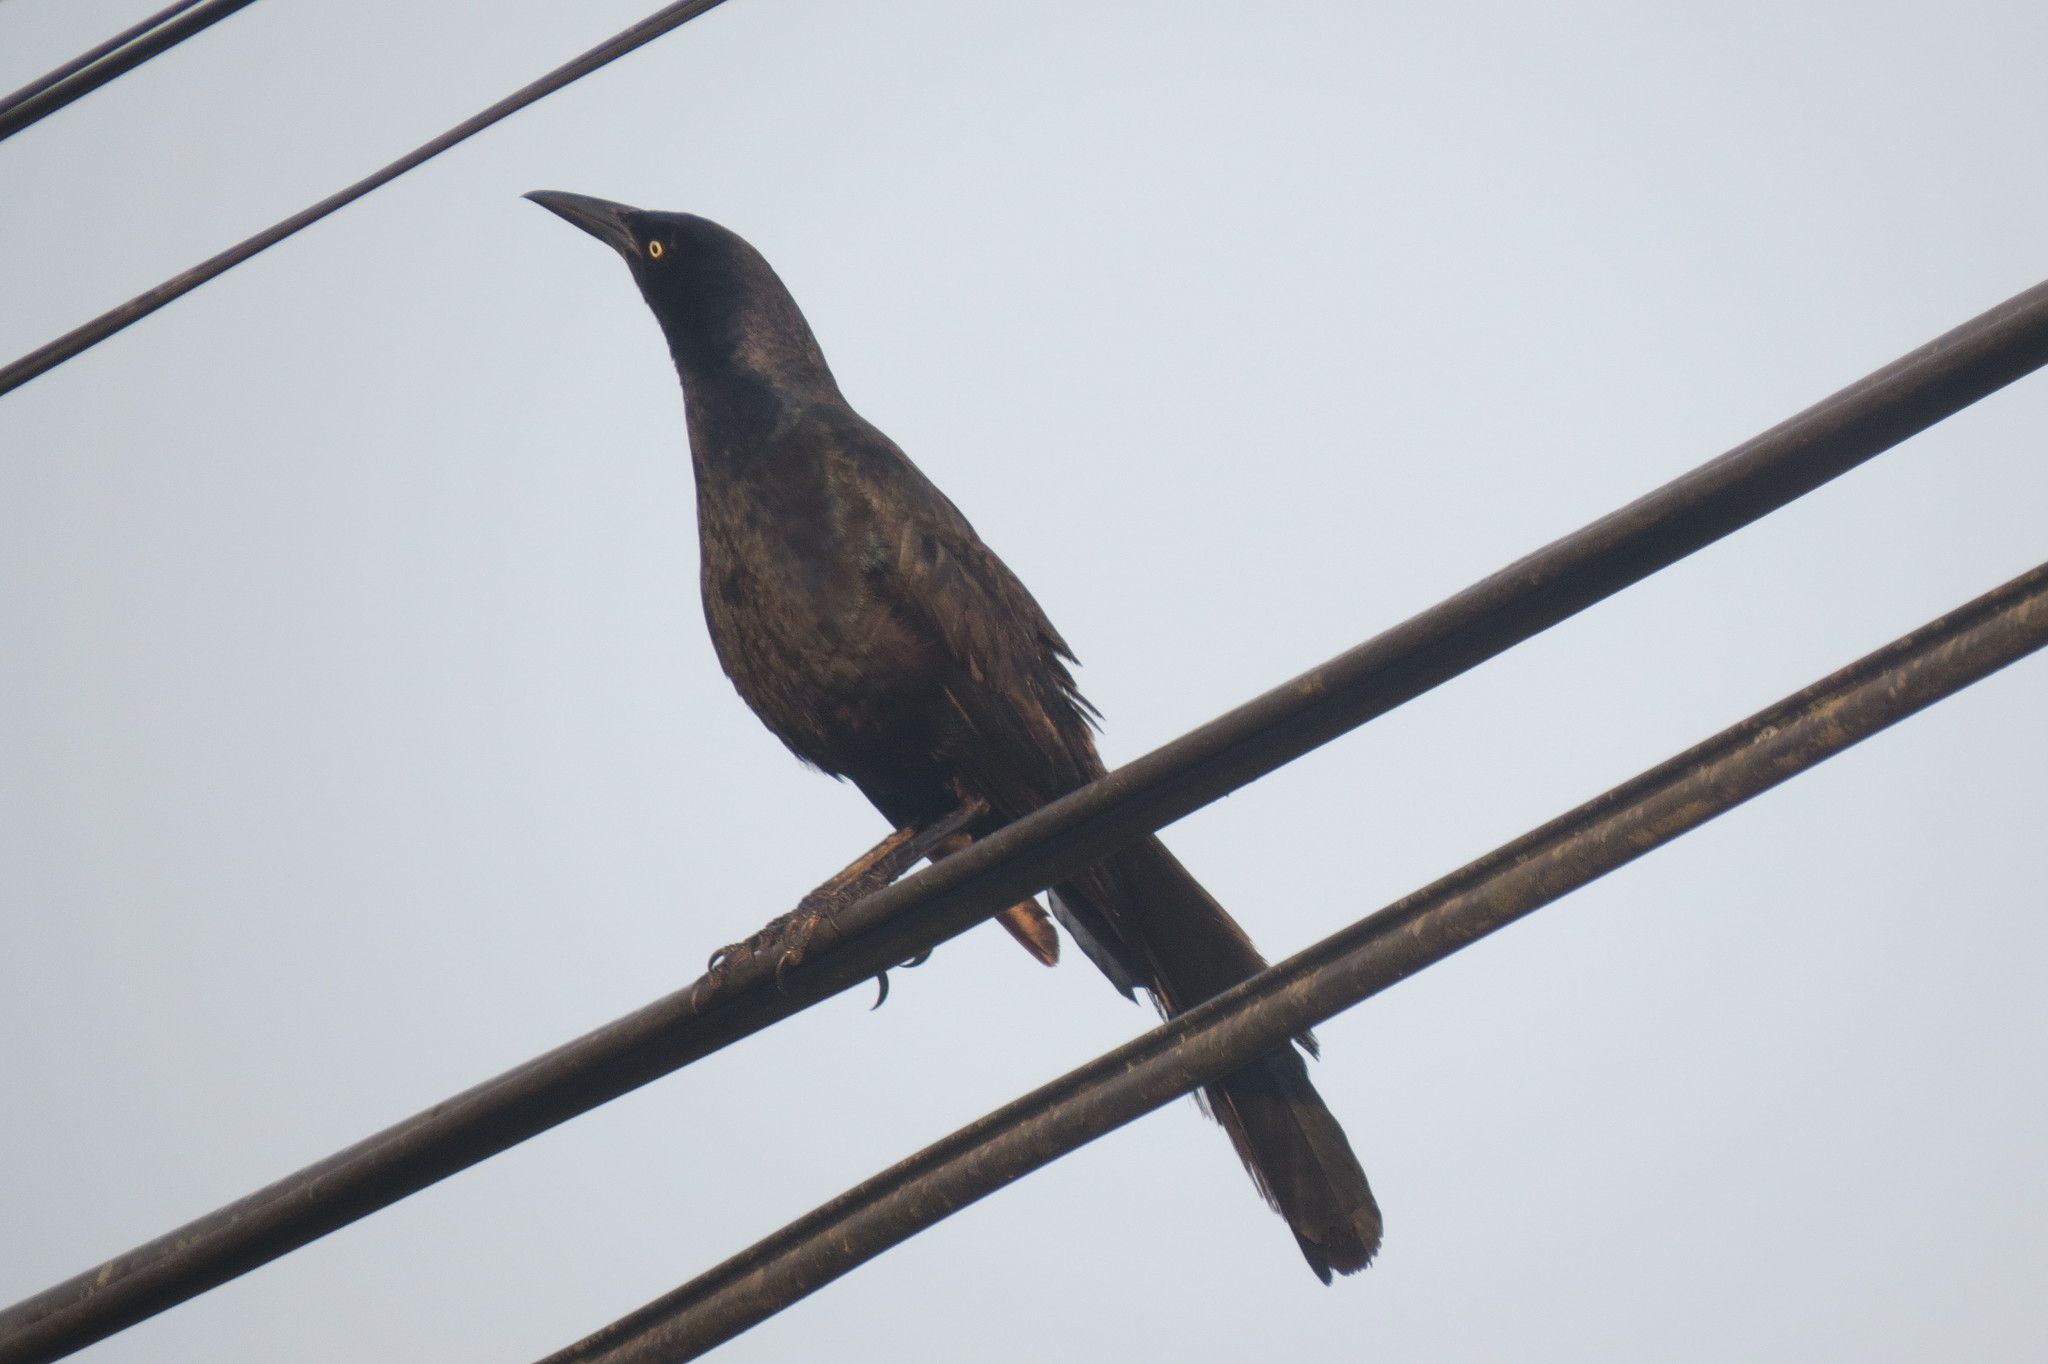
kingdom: Animalia
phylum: Chordata
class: Aves
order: Passeriformes
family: Icteridae
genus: Quiscalus
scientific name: Quiscalus mexicanus
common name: Great-tailed grackle
